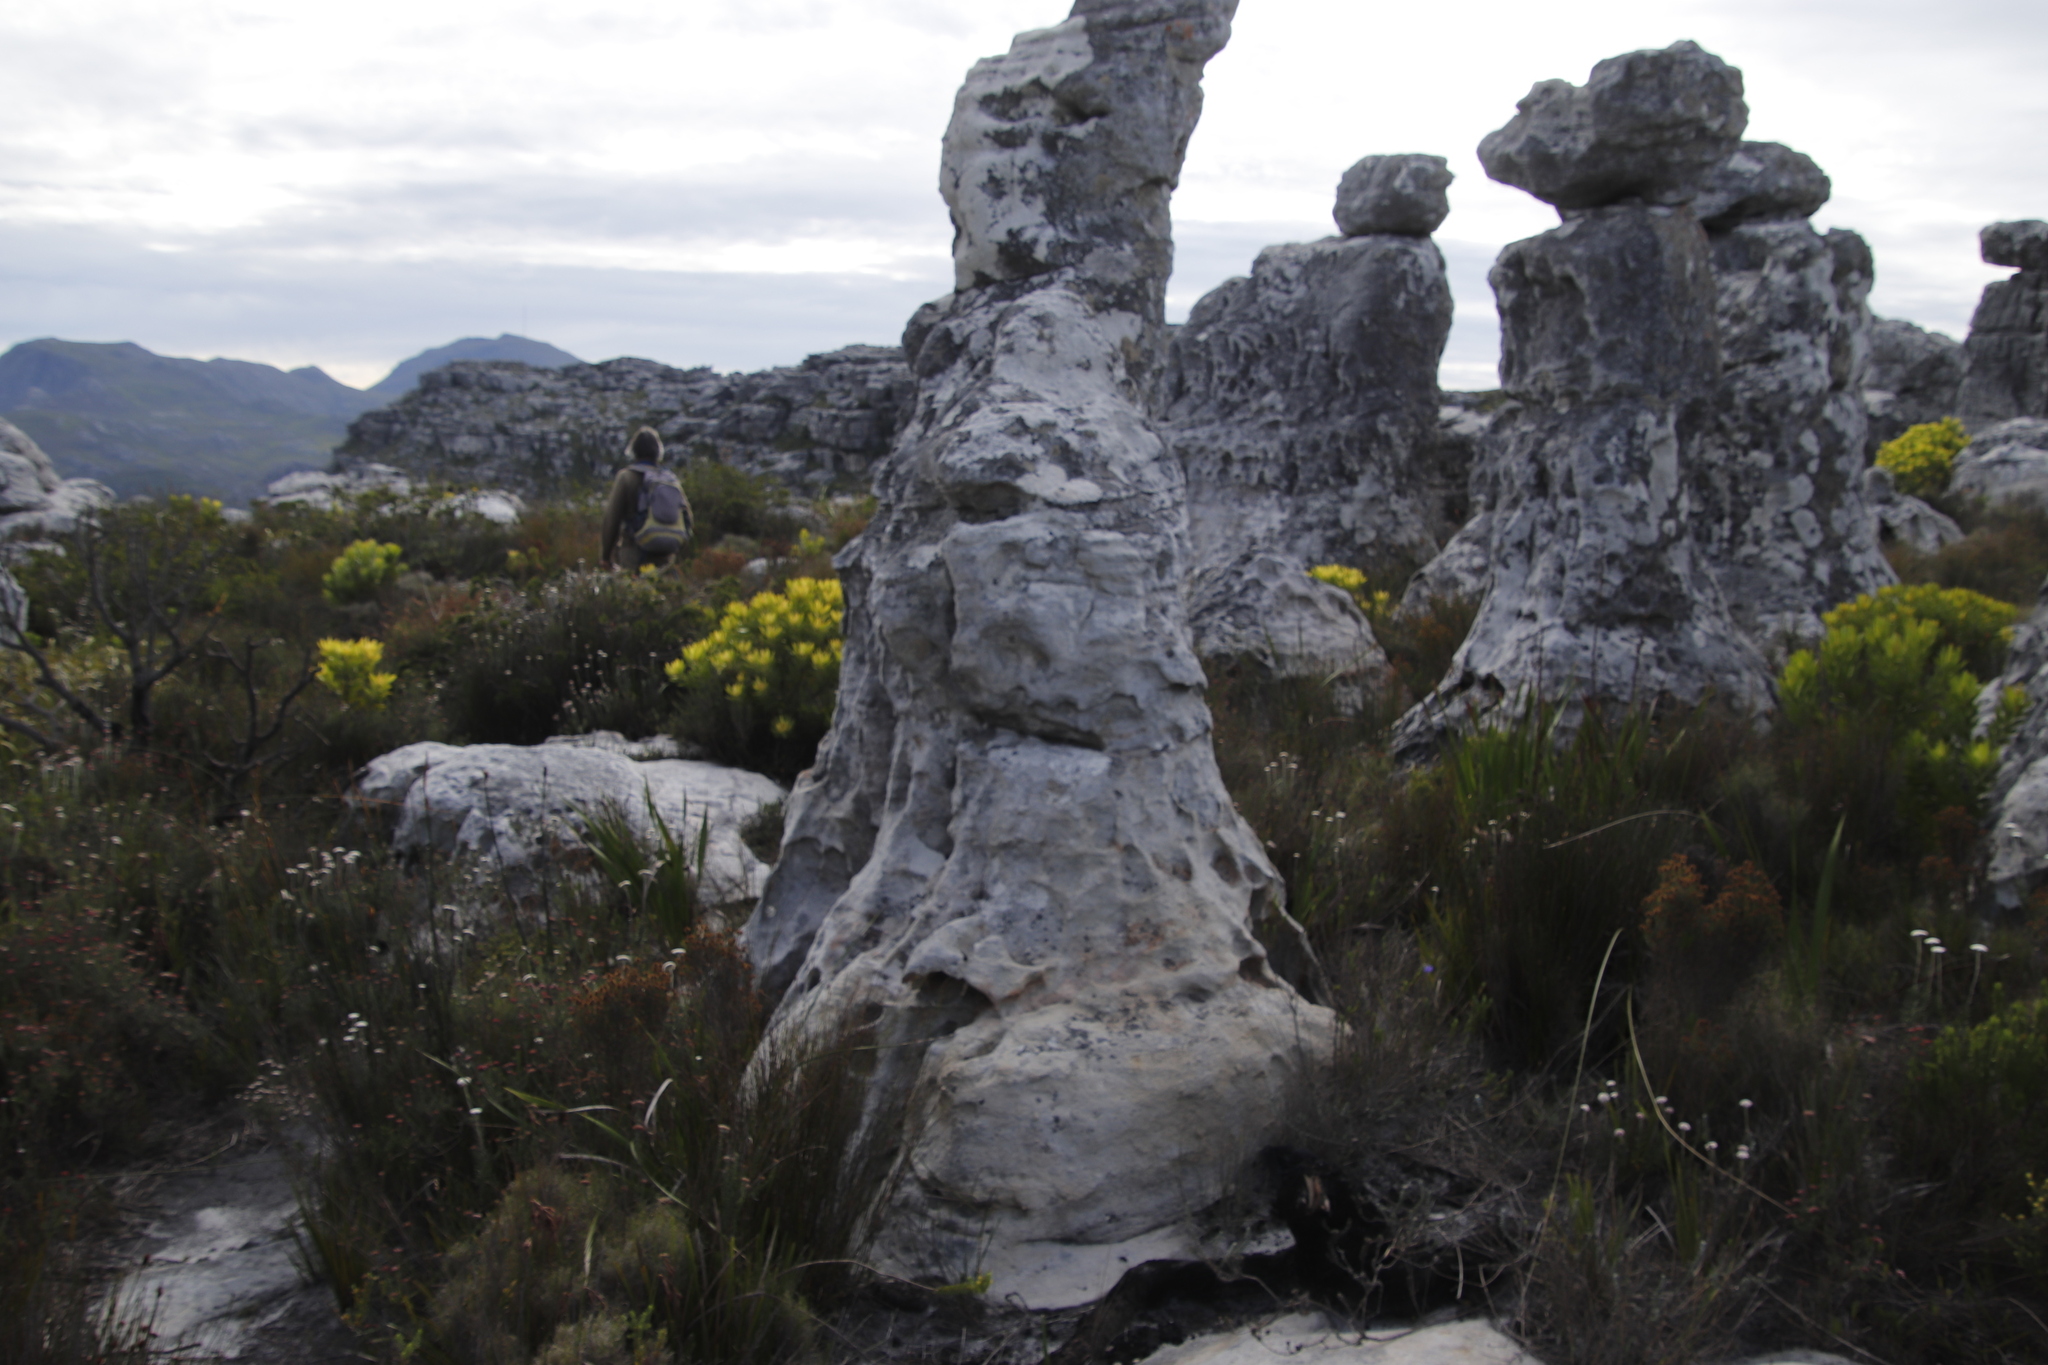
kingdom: Plantae
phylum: Tracheophyta
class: Magnoliopsida
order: Proteales
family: Proteaceae
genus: Leucadendron
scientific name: Leucadendron laureolum
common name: Golden sunshinebush
